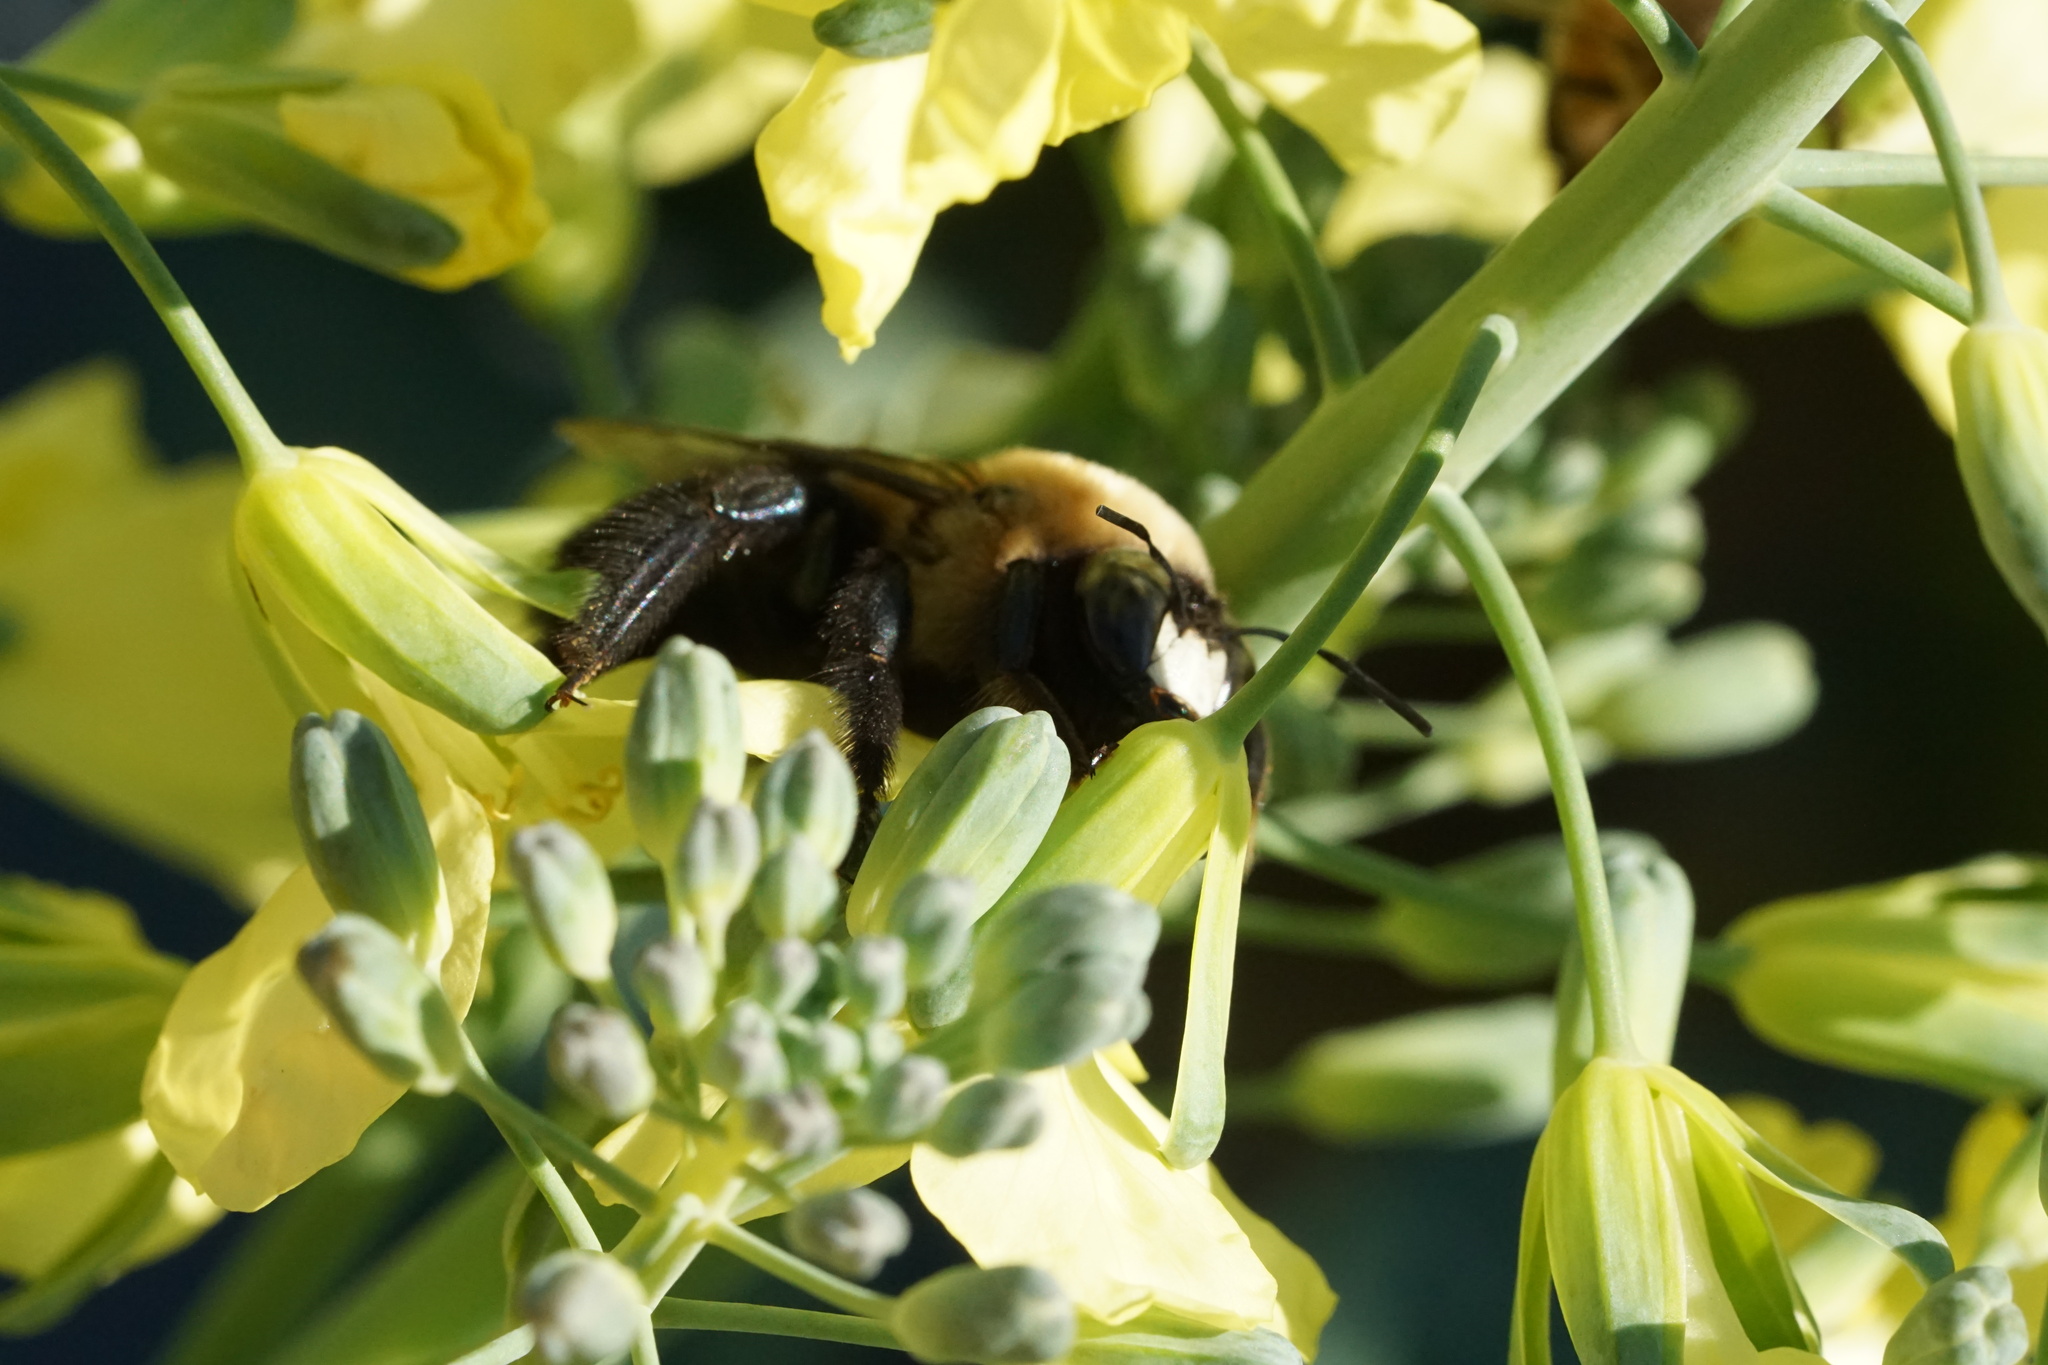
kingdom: Animalia
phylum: Arthropoda
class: Insecta
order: Hymenoptera
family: Apidae
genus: Xylocopa
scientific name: Xylocopa virginica
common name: Carpenter bee
